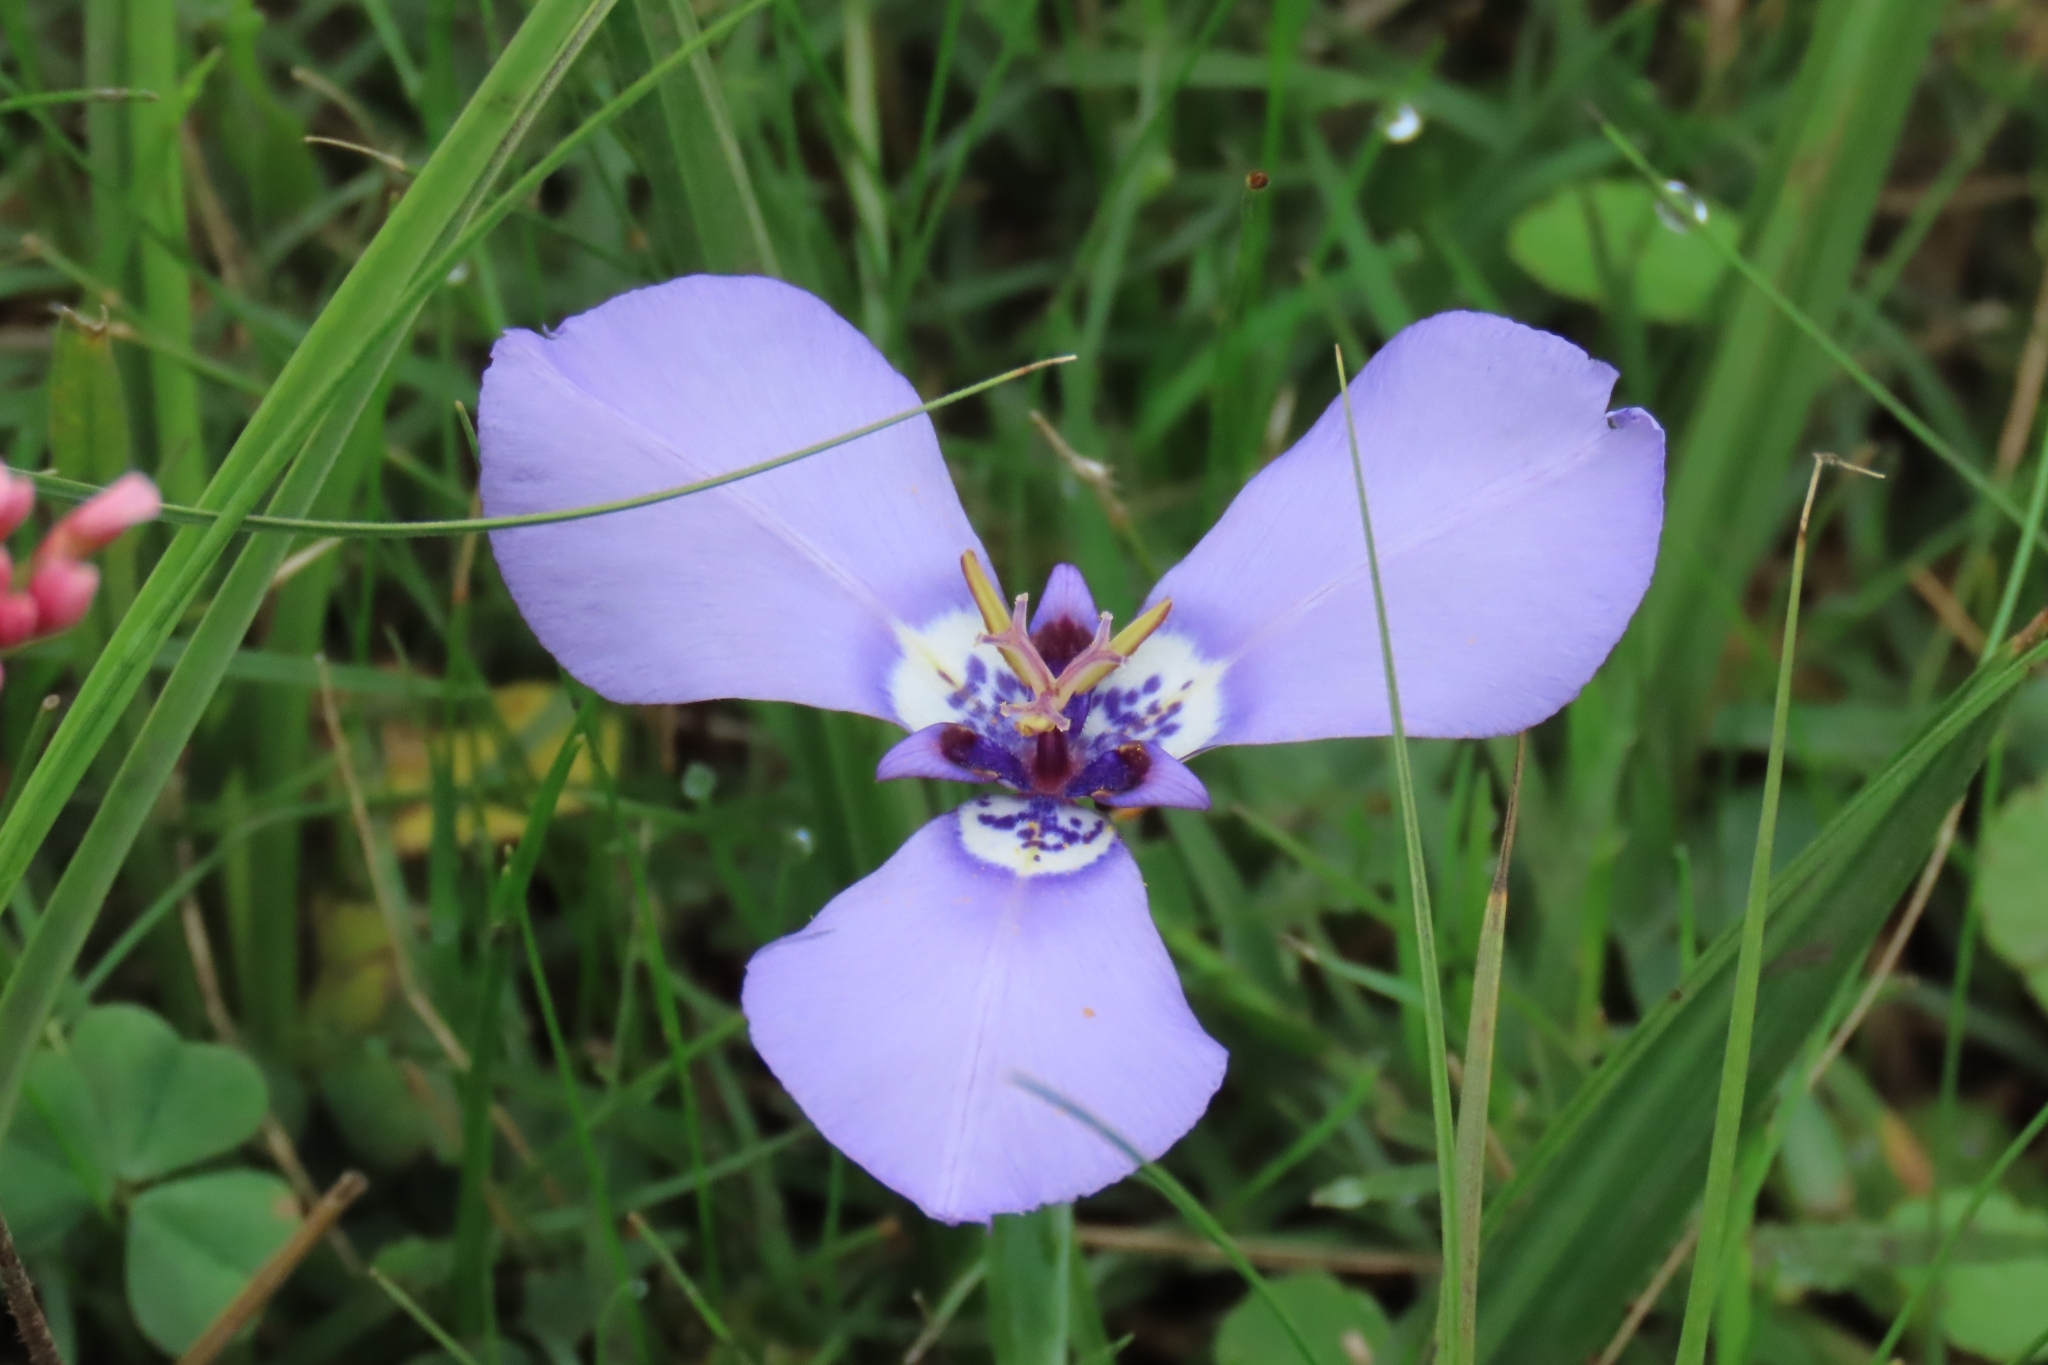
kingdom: Plantae
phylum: Tracheophyta
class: Liliopsida
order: Asparagales
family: Iridaceae
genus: Herbertia
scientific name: Herbertia lahue
